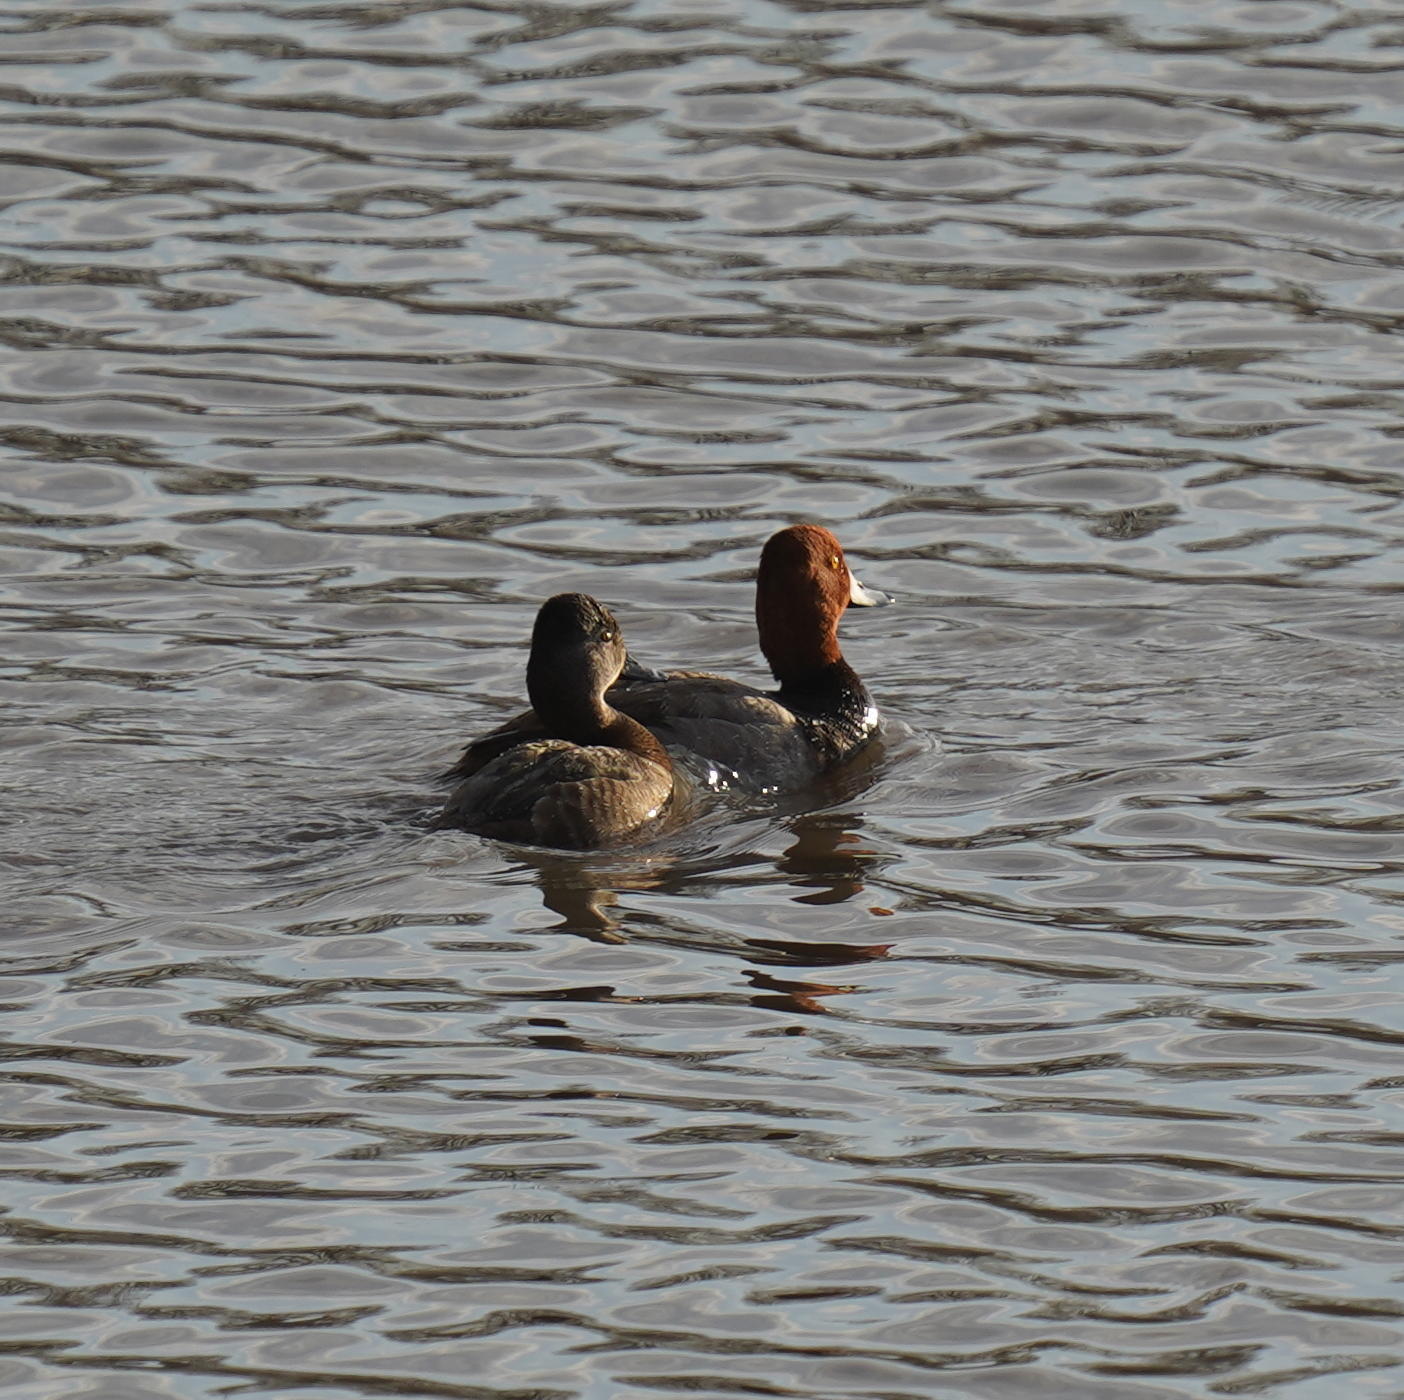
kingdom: Animalia
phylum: Chordata
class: Aves
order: Anseriformes
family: Anatidae
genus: Aythya
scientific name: Aythya americana
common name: Redhead
